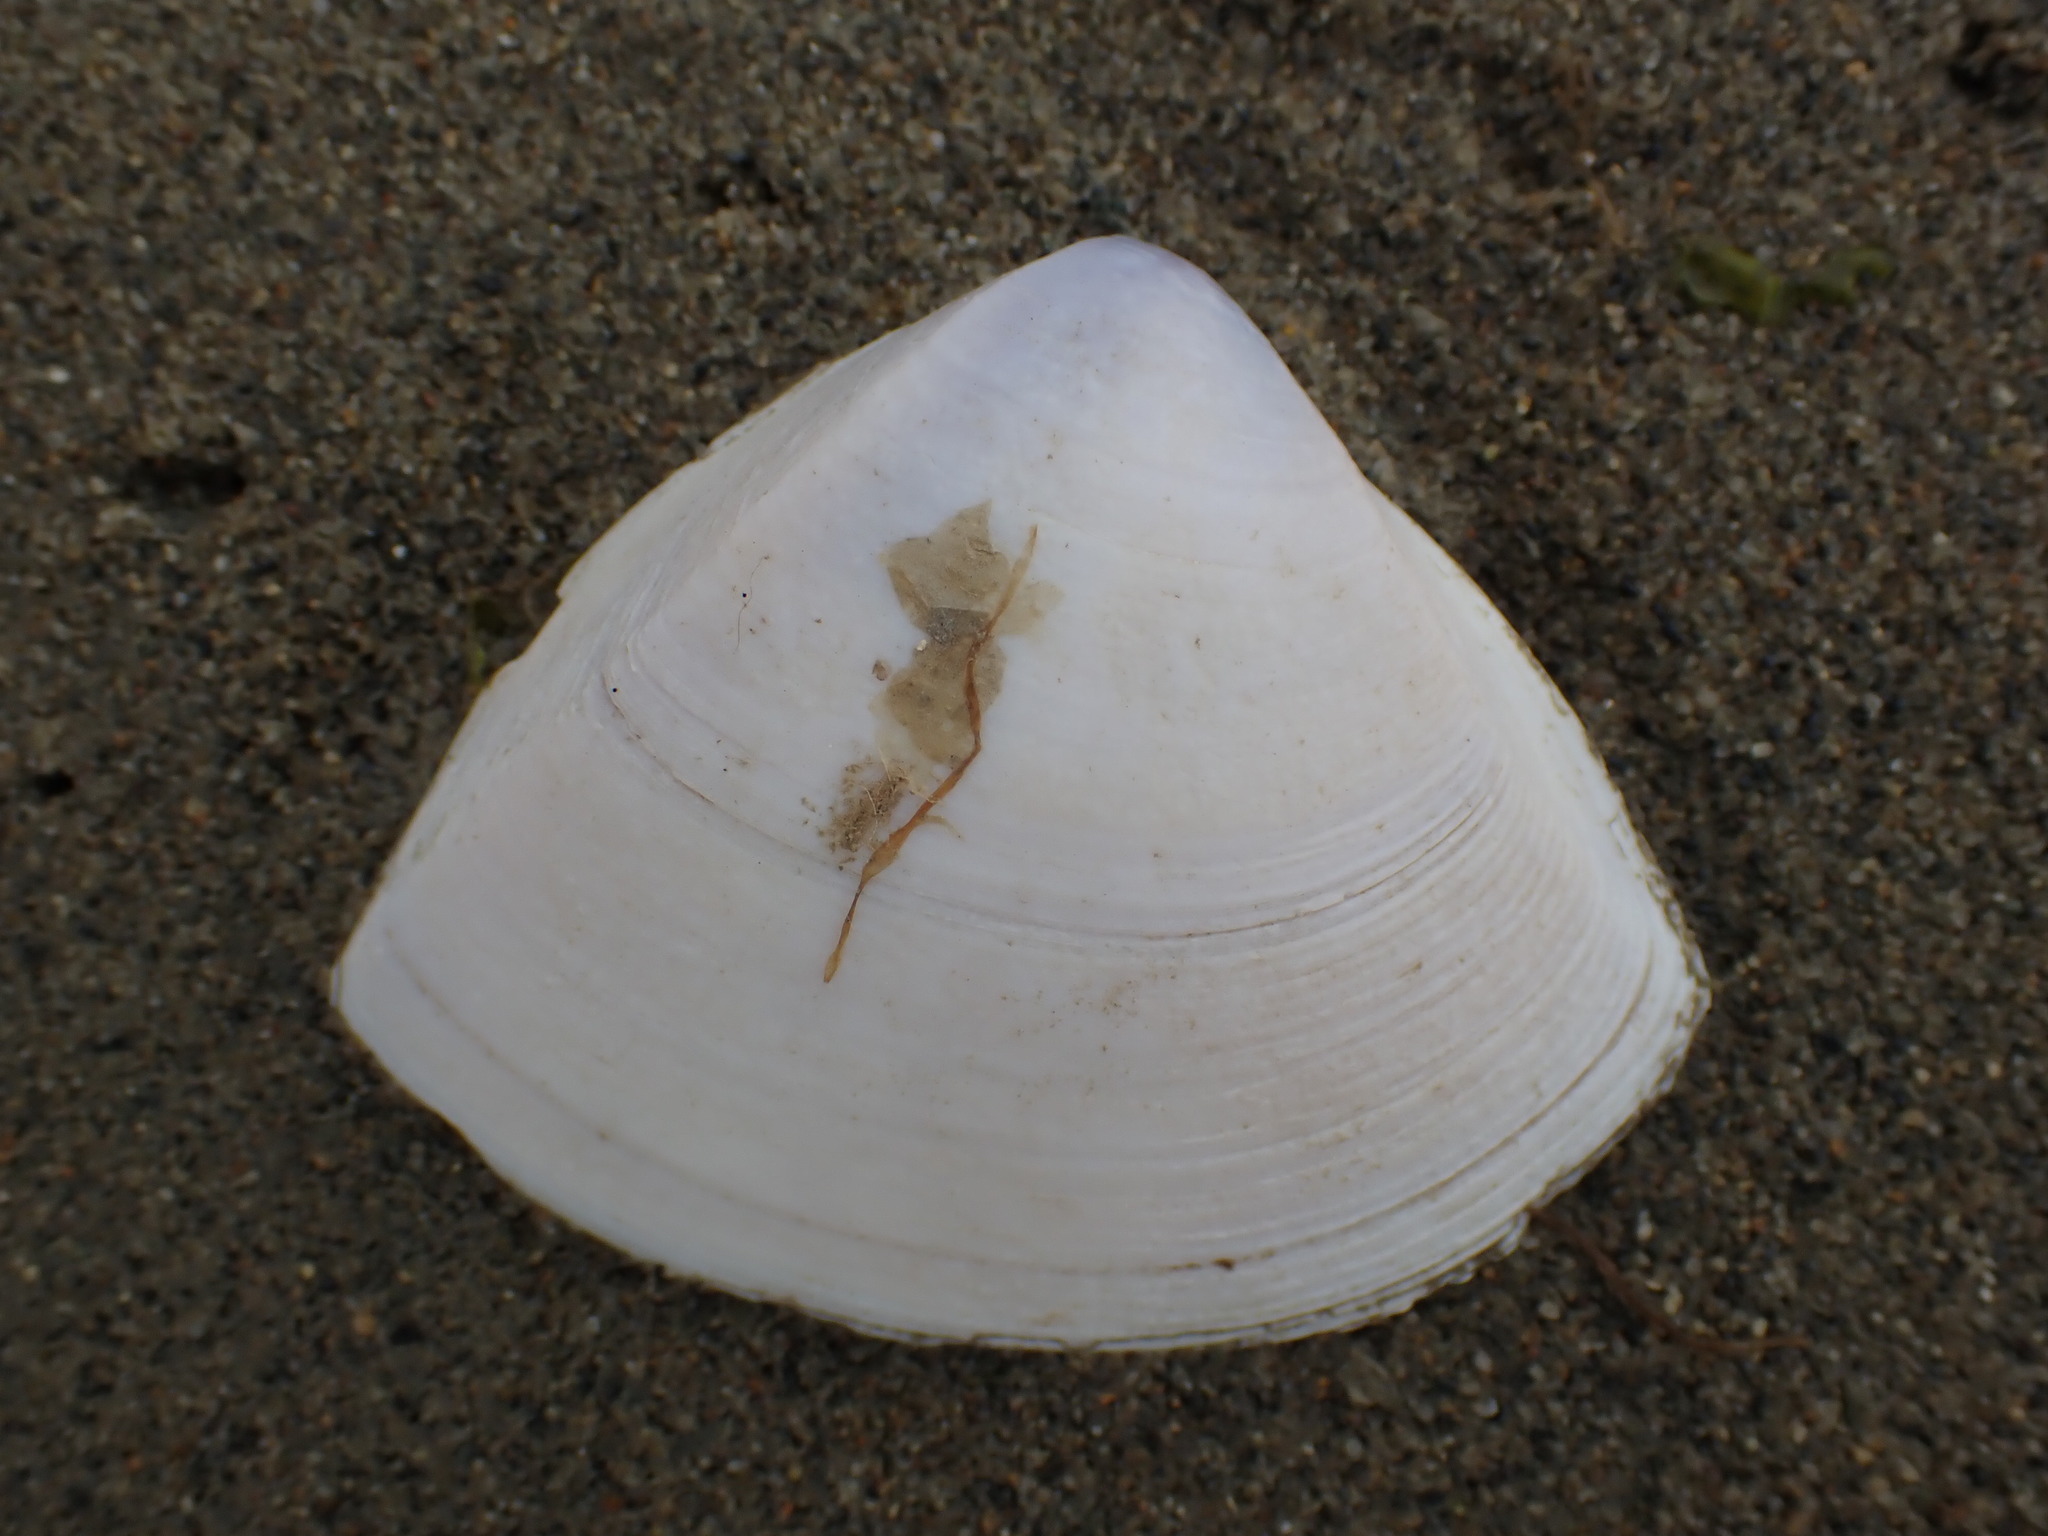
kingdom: Animalia
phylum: Mollusca
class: Bivalvia
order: Venerida
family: Mactridae
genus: Crassula
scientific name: Crassula aequilatera
